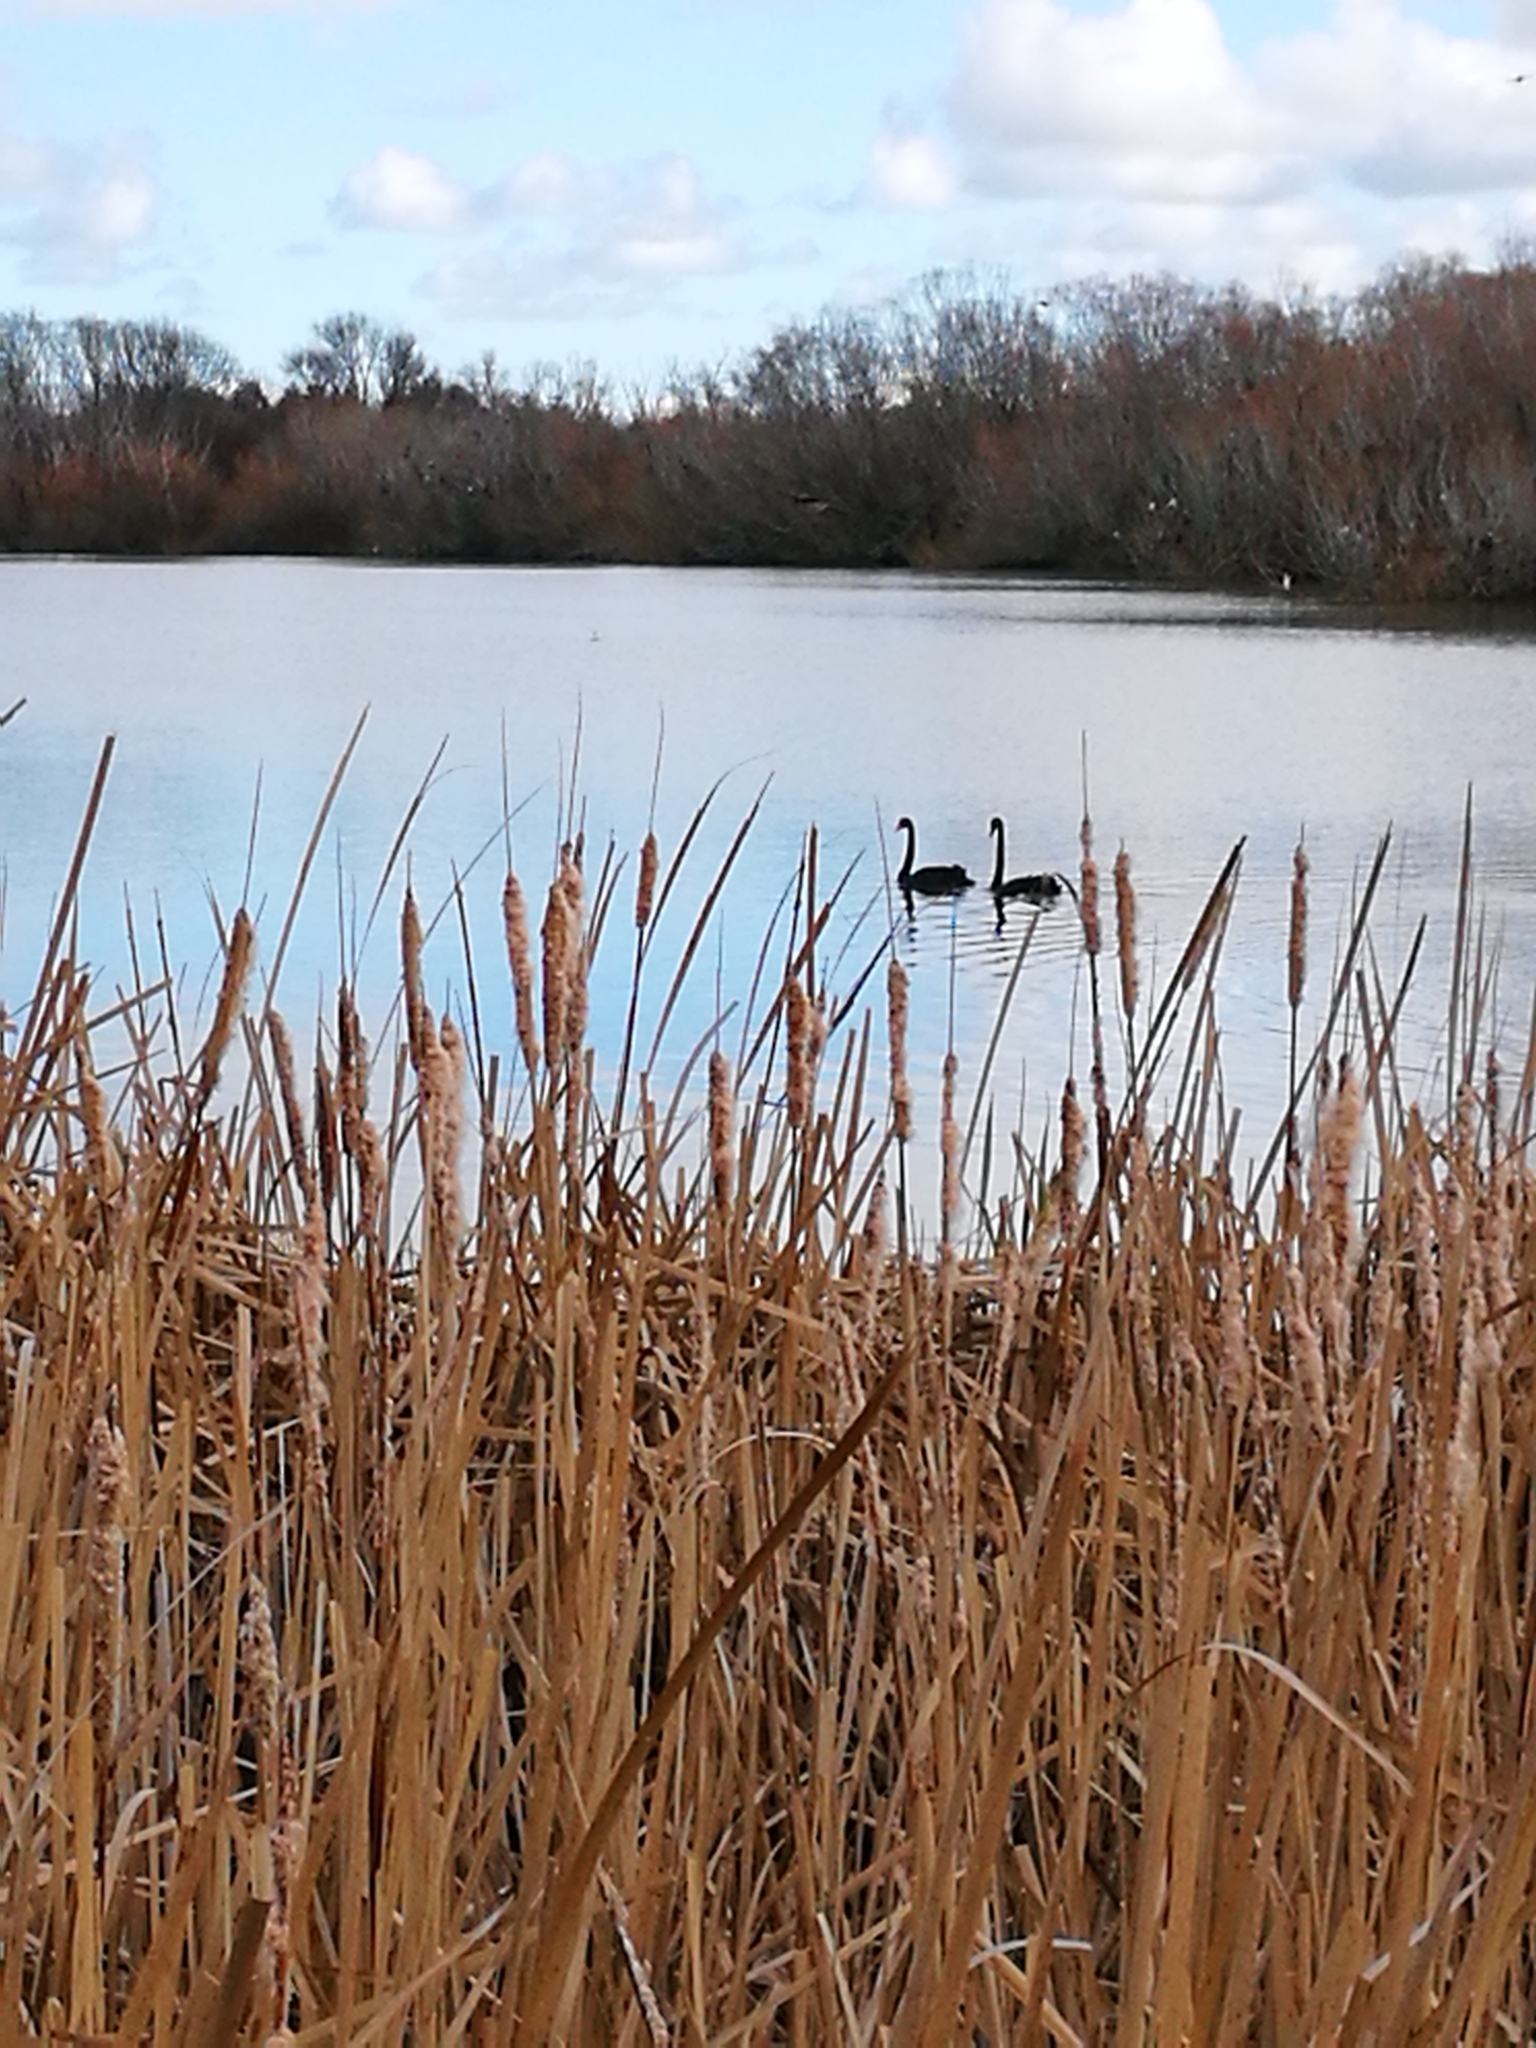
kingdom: Animalia
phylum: Chordata
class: Aves
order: Anseriformes
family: Anatidae
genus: Cygnus
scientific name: Cygnus atratus
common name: Black swan
